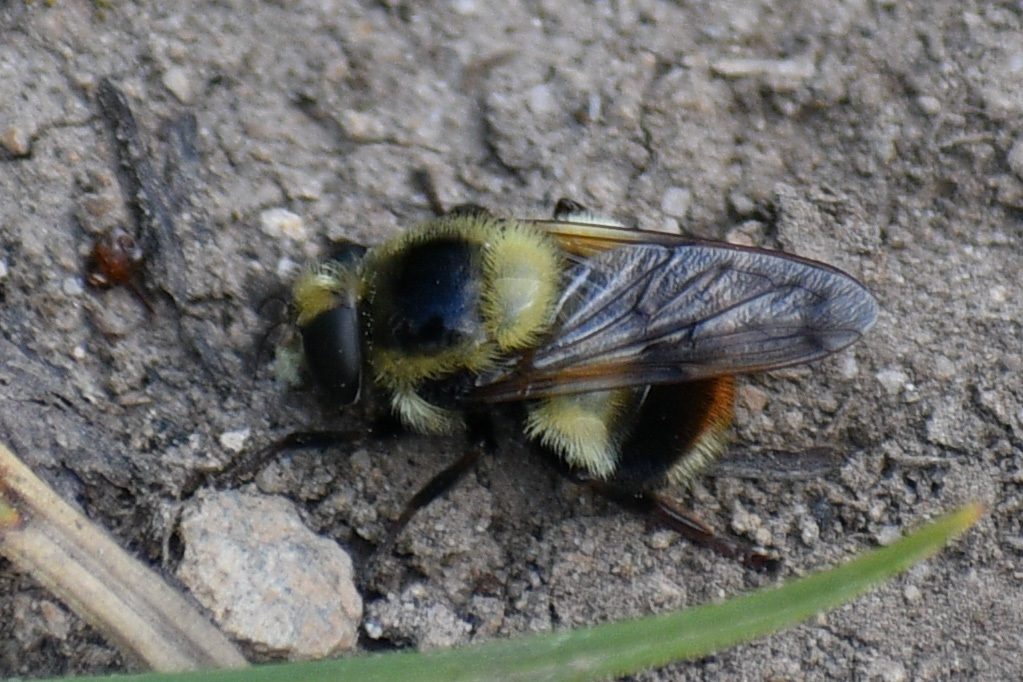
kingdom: Animalia
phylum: Arthropoda
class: Insecta
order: Diptera
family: Syrphidae
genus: Volucella
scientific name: Volucella facialis
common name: Yellow-faced swiftwing
